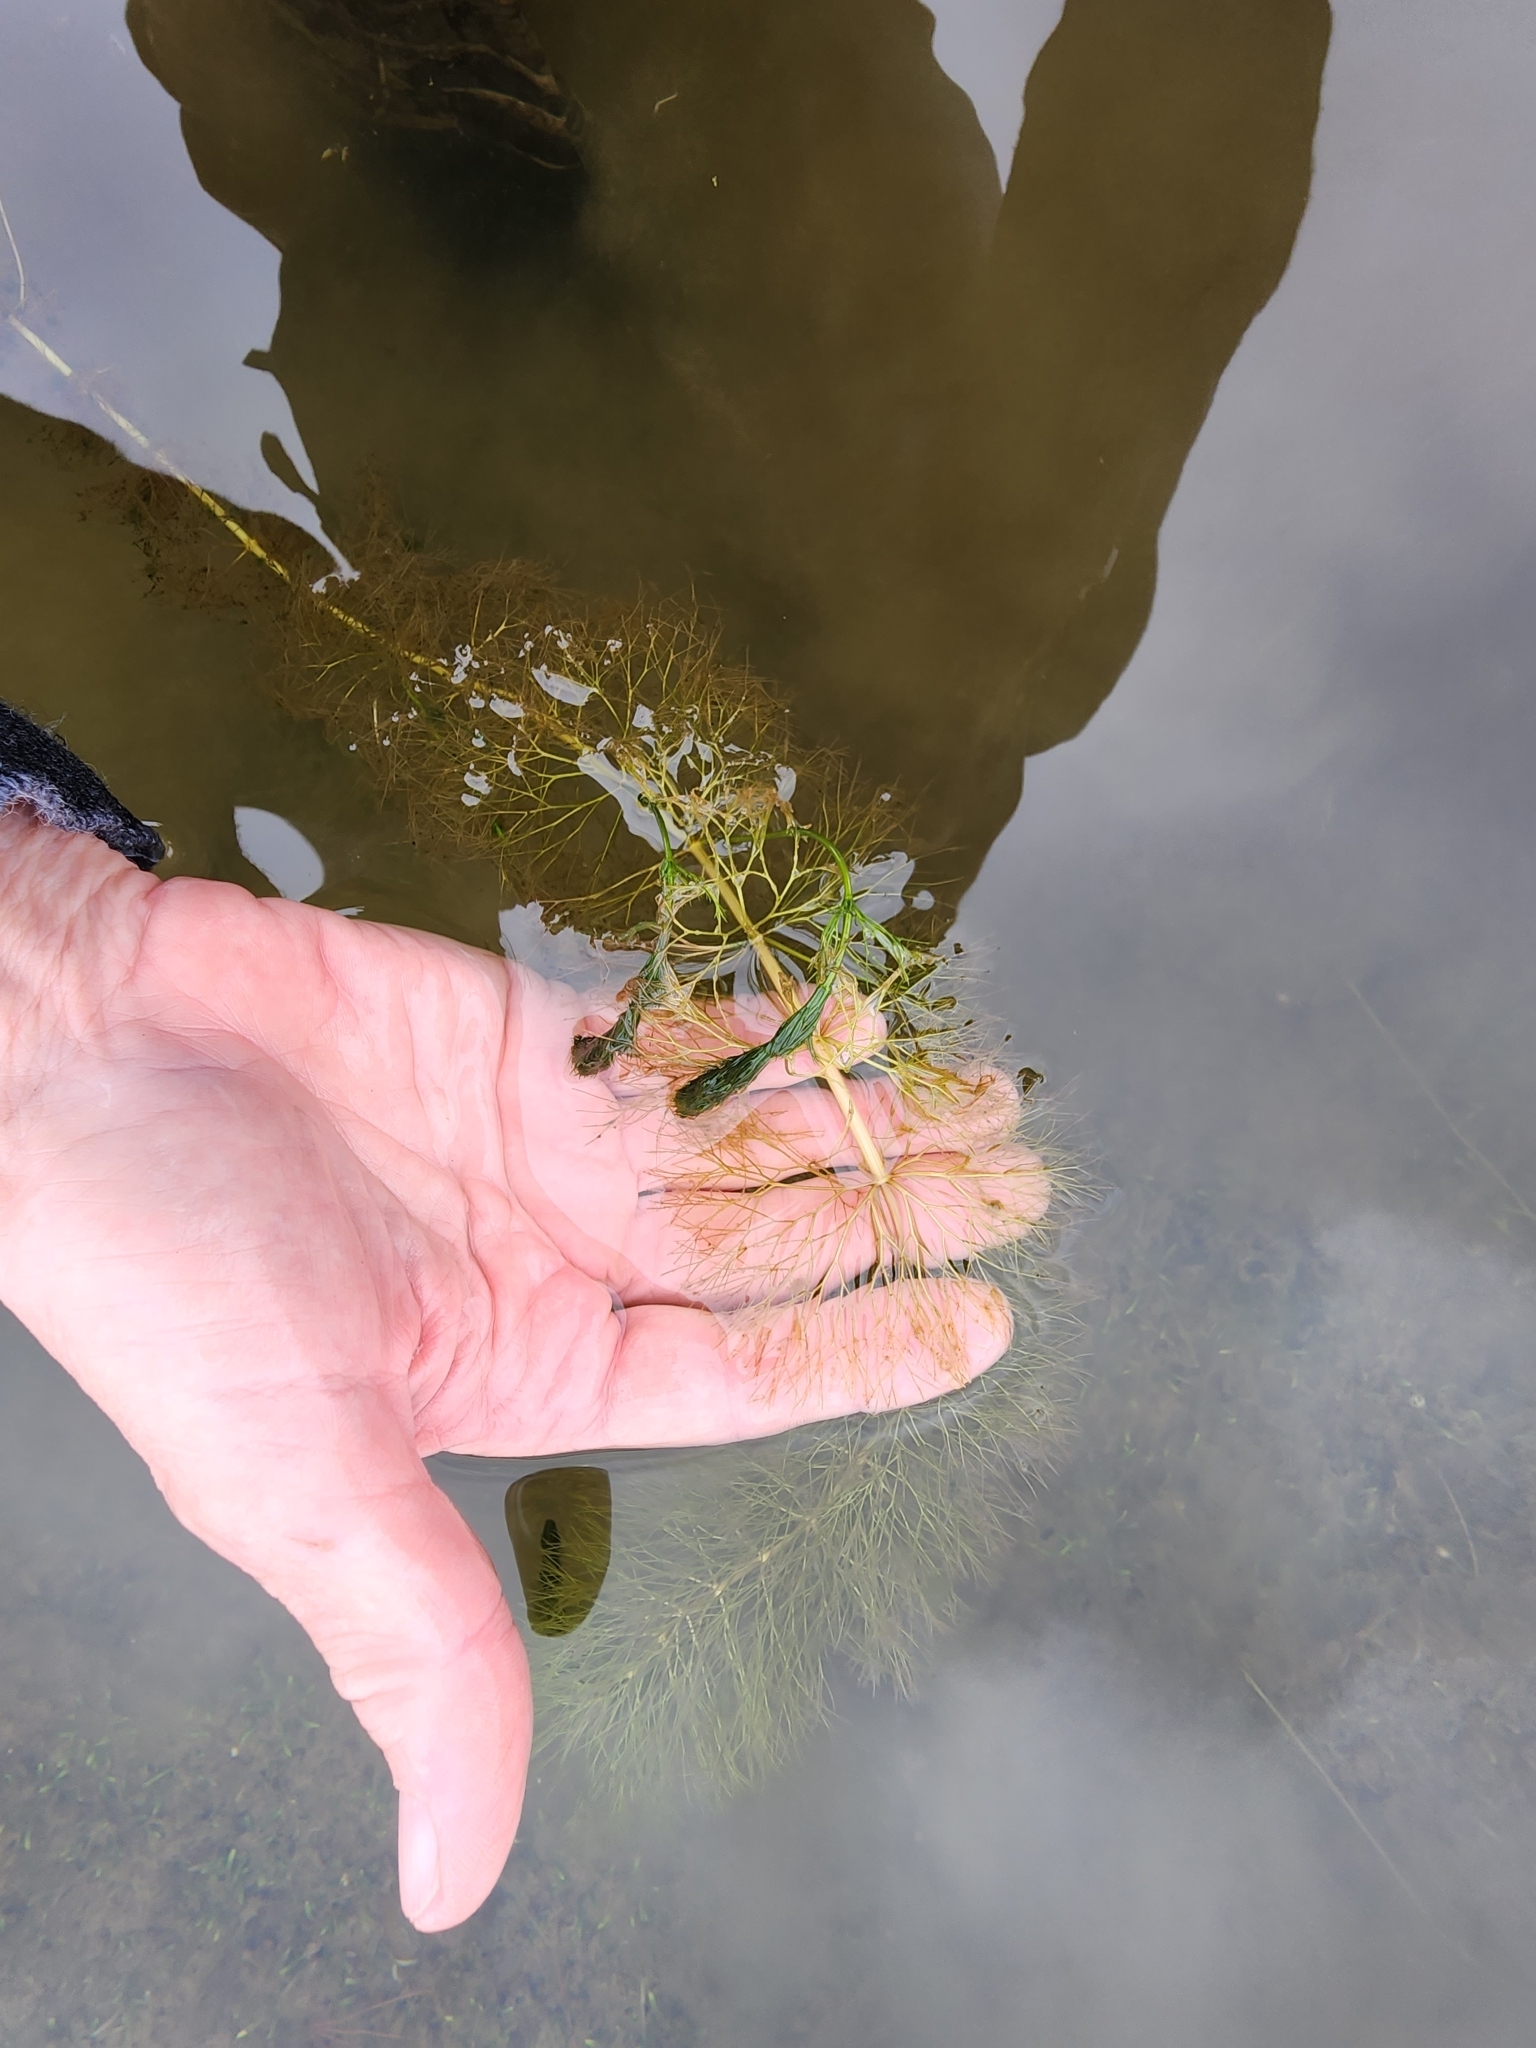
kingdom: Plantae
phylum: Tracheophyta
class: Magnoliopsida
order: Asterales
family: Asteraceae
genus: Bidens
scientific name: Bidens beckii
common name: Beck's beggarticks
